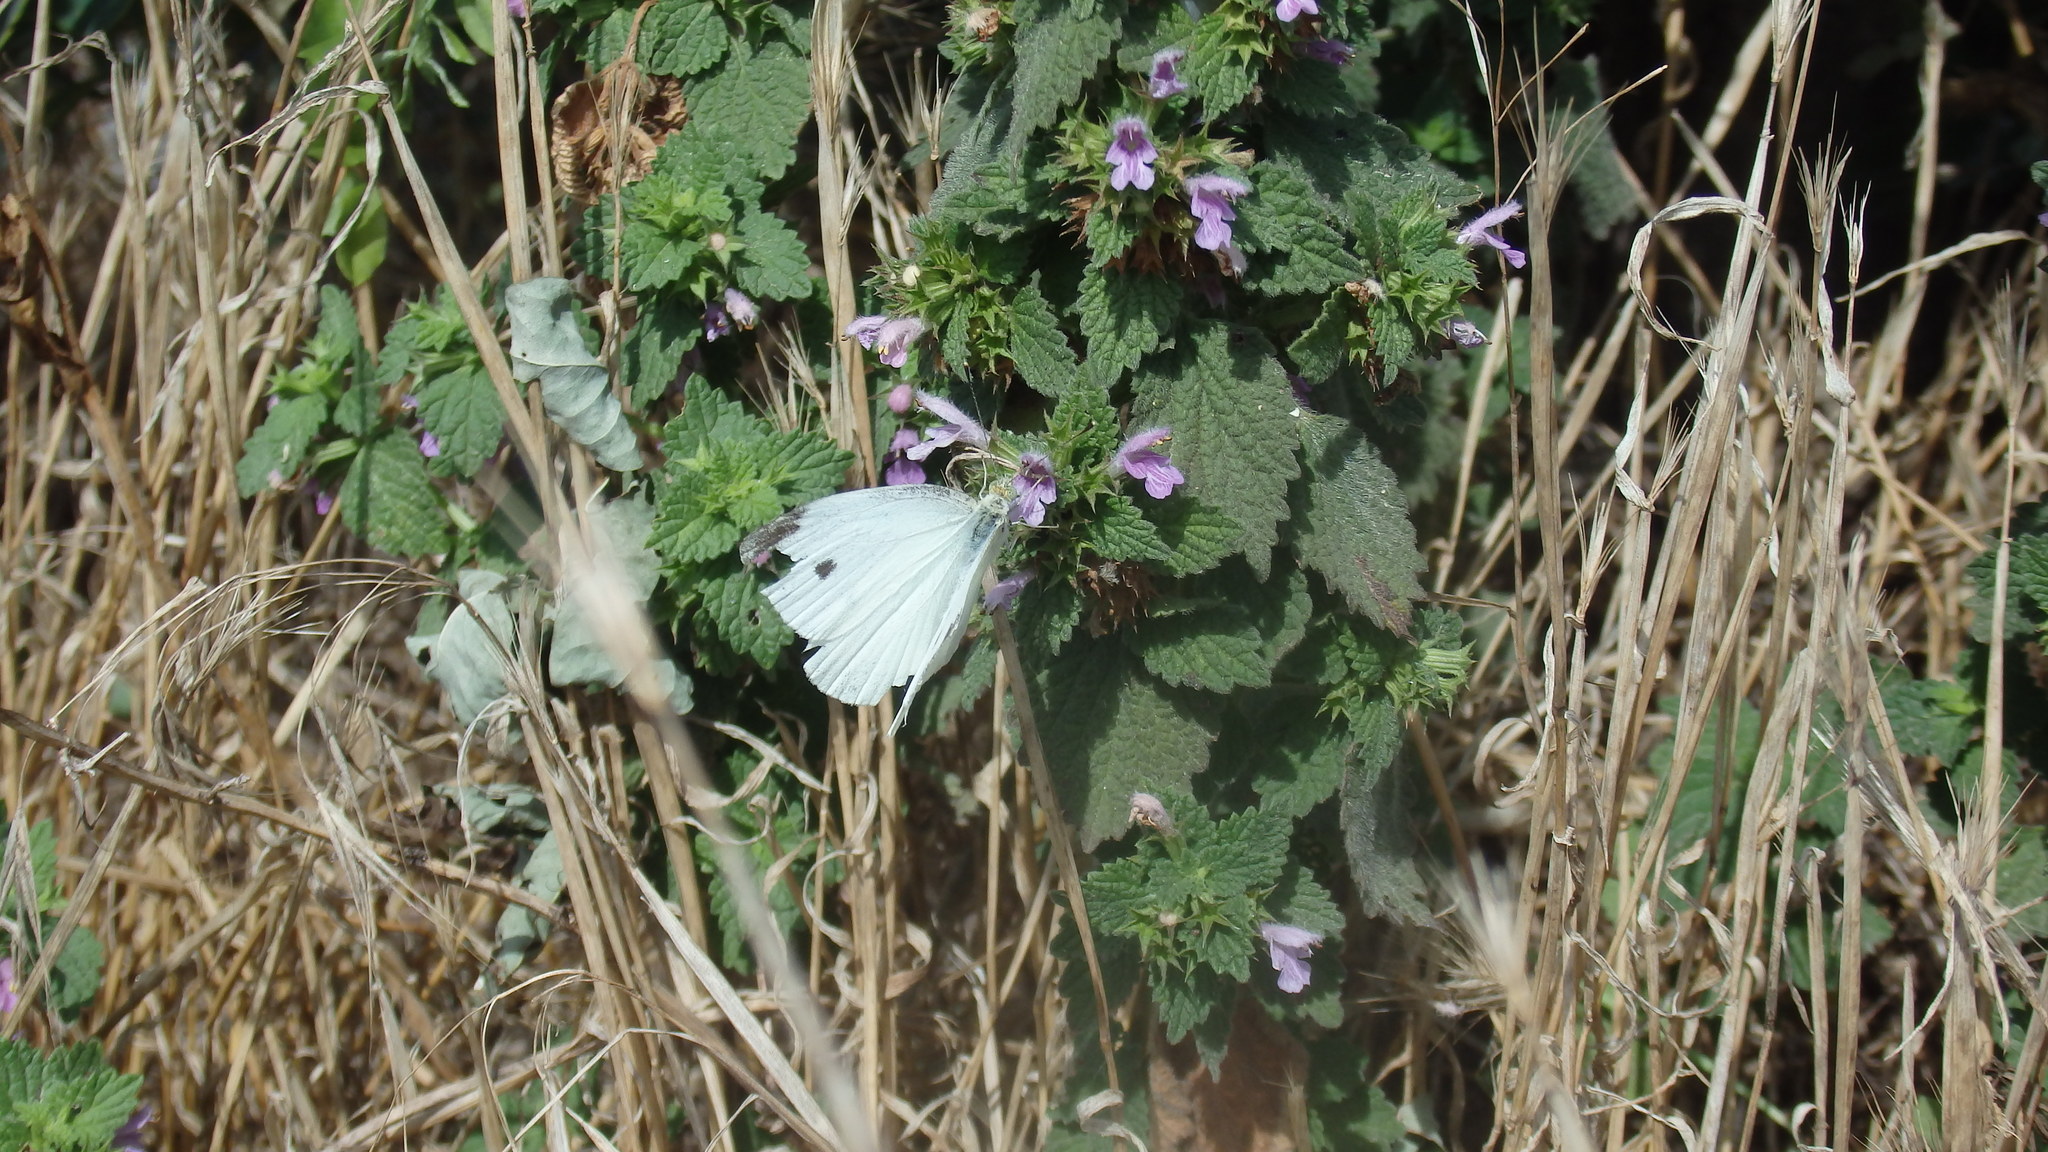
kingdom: Animalia
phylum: Arthropoda
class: Insecta
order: Lepidoptera
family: Pieridae
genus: Pieris
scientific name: Pieris rapae
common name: Small white
